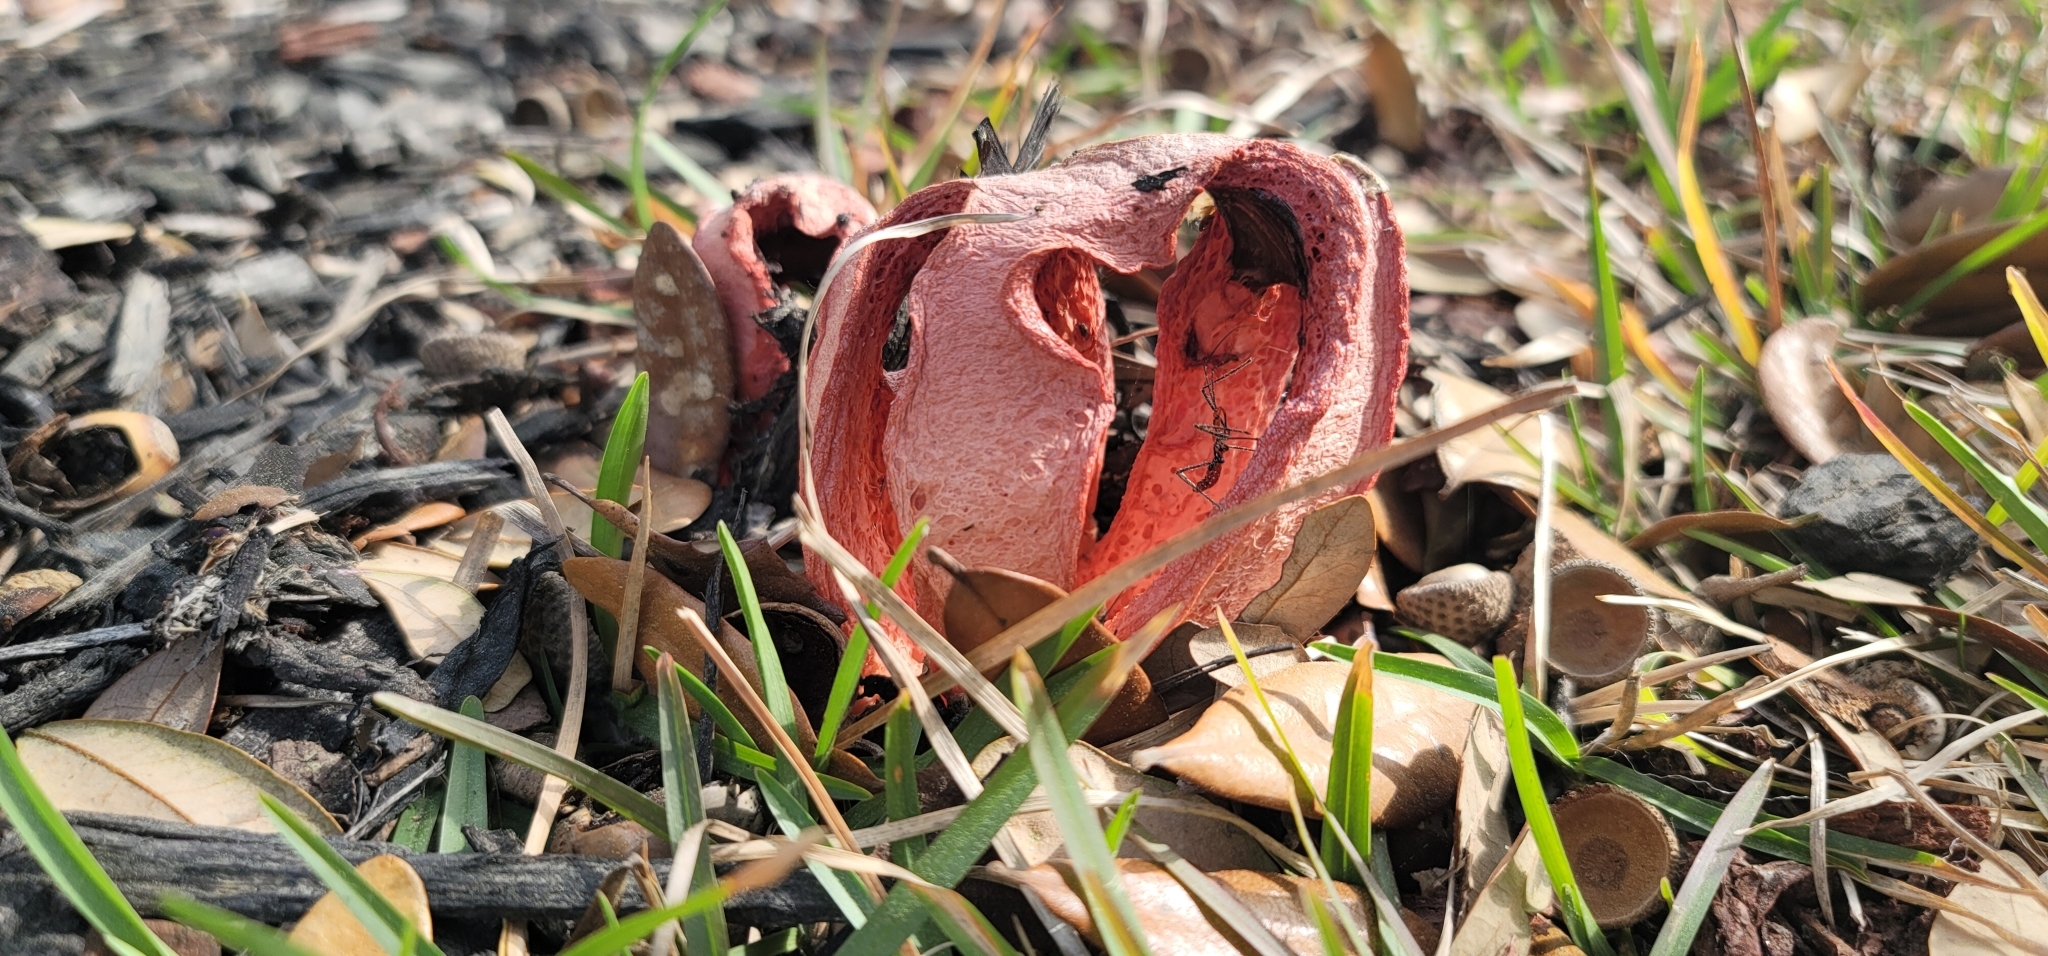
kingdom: Fungi
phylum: Basidiomycota
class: Agaricomycetes
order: Phallales
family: Phallaceae
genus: Clathrus
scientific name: Clathrus columnatus
